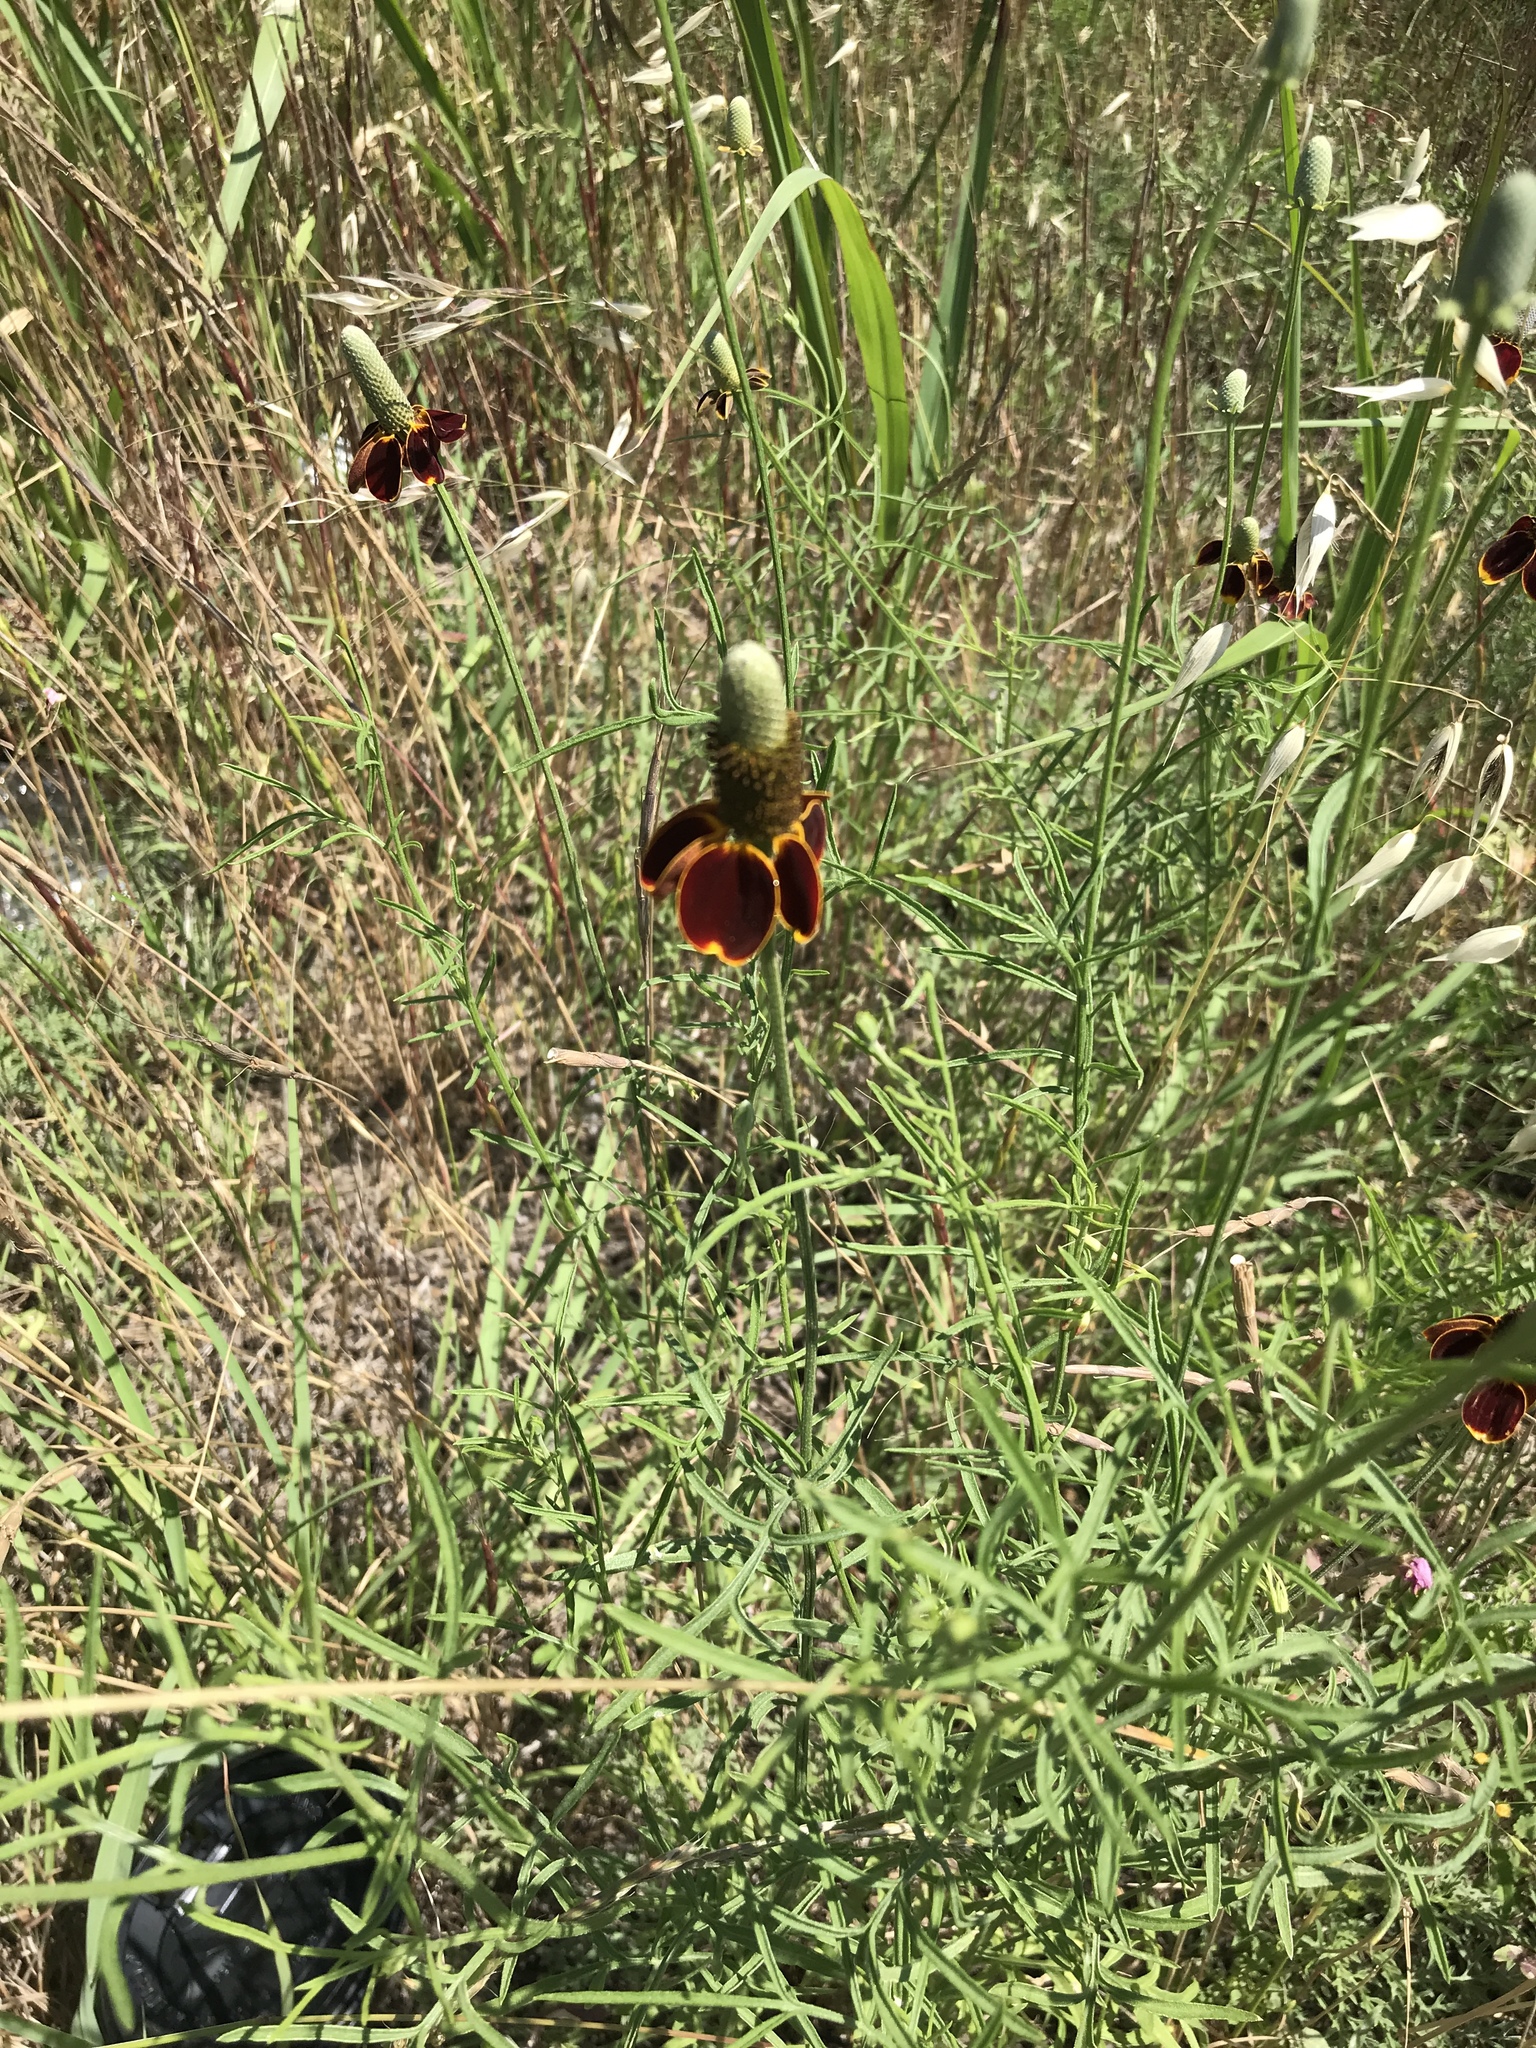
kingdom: Plantae
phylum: Tracheophyta
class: Magnoliopsida
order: Asterales
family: Asteraceae
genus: Ratibida
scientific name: Ratibida columnifera
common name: Prairie coneflower
